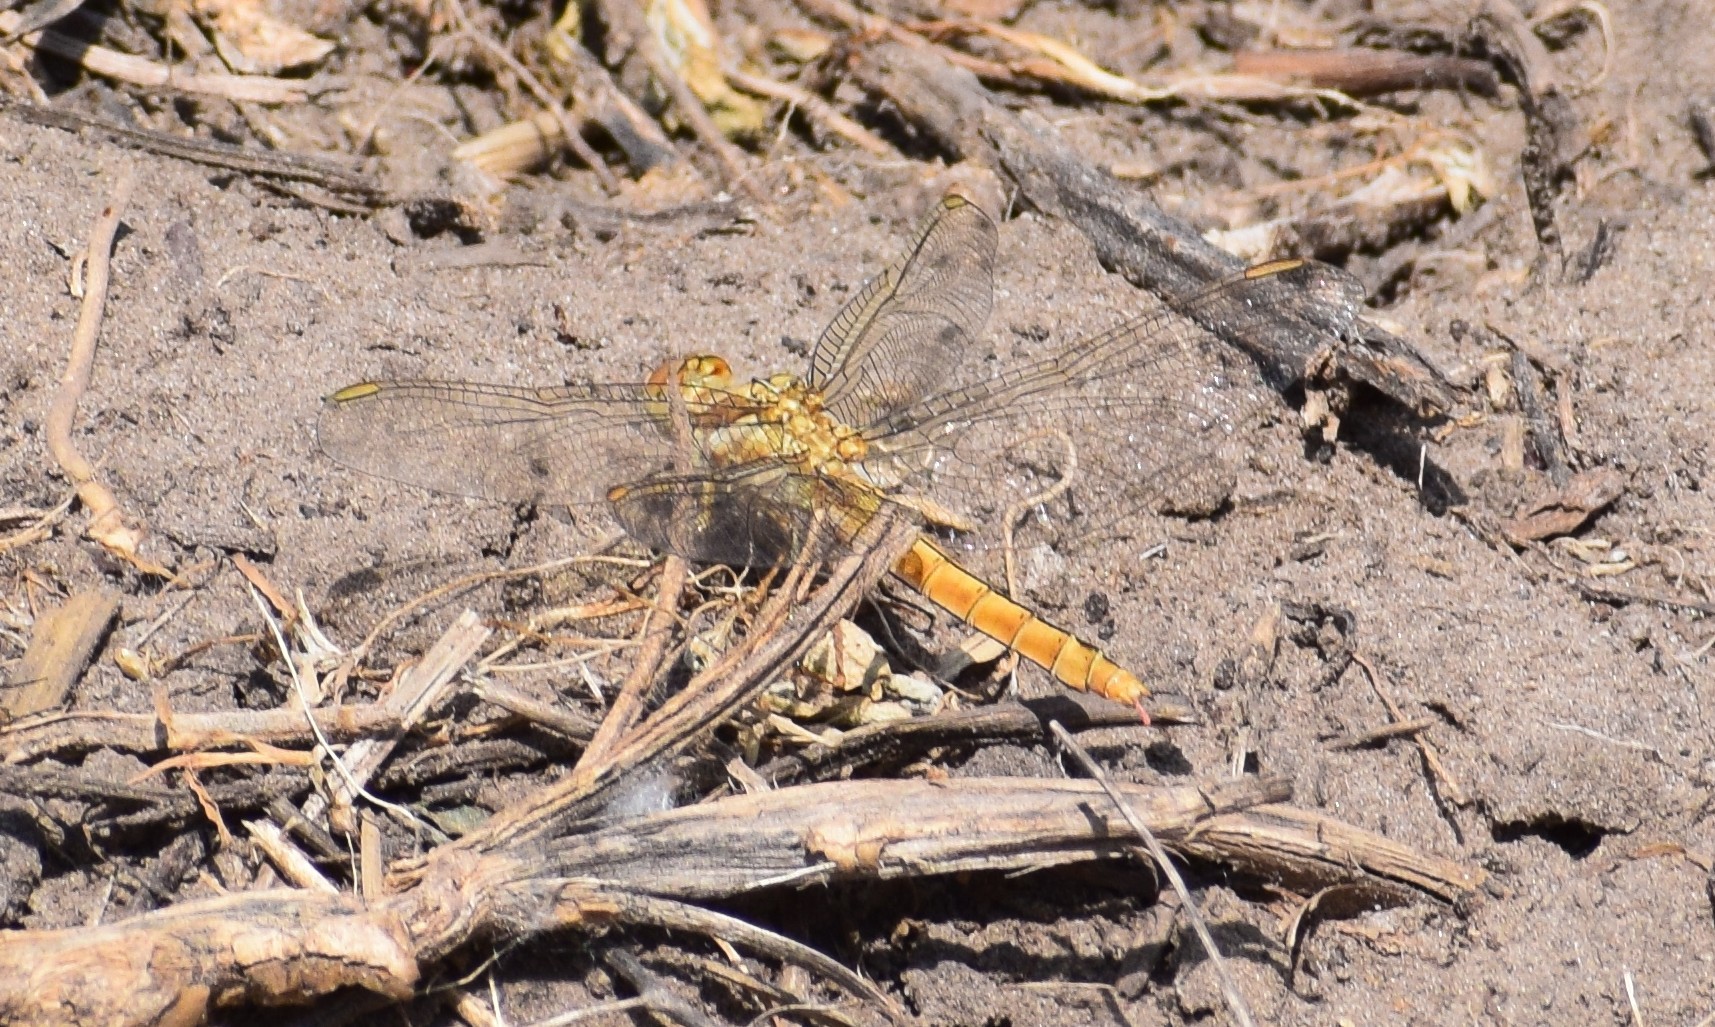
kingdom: Animalia
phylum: Arthropoda
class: Insecta
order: Odonata
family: Libellulidae
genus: Orthetrum
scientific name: Orthetrum brunneum
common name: Southern skimmer
